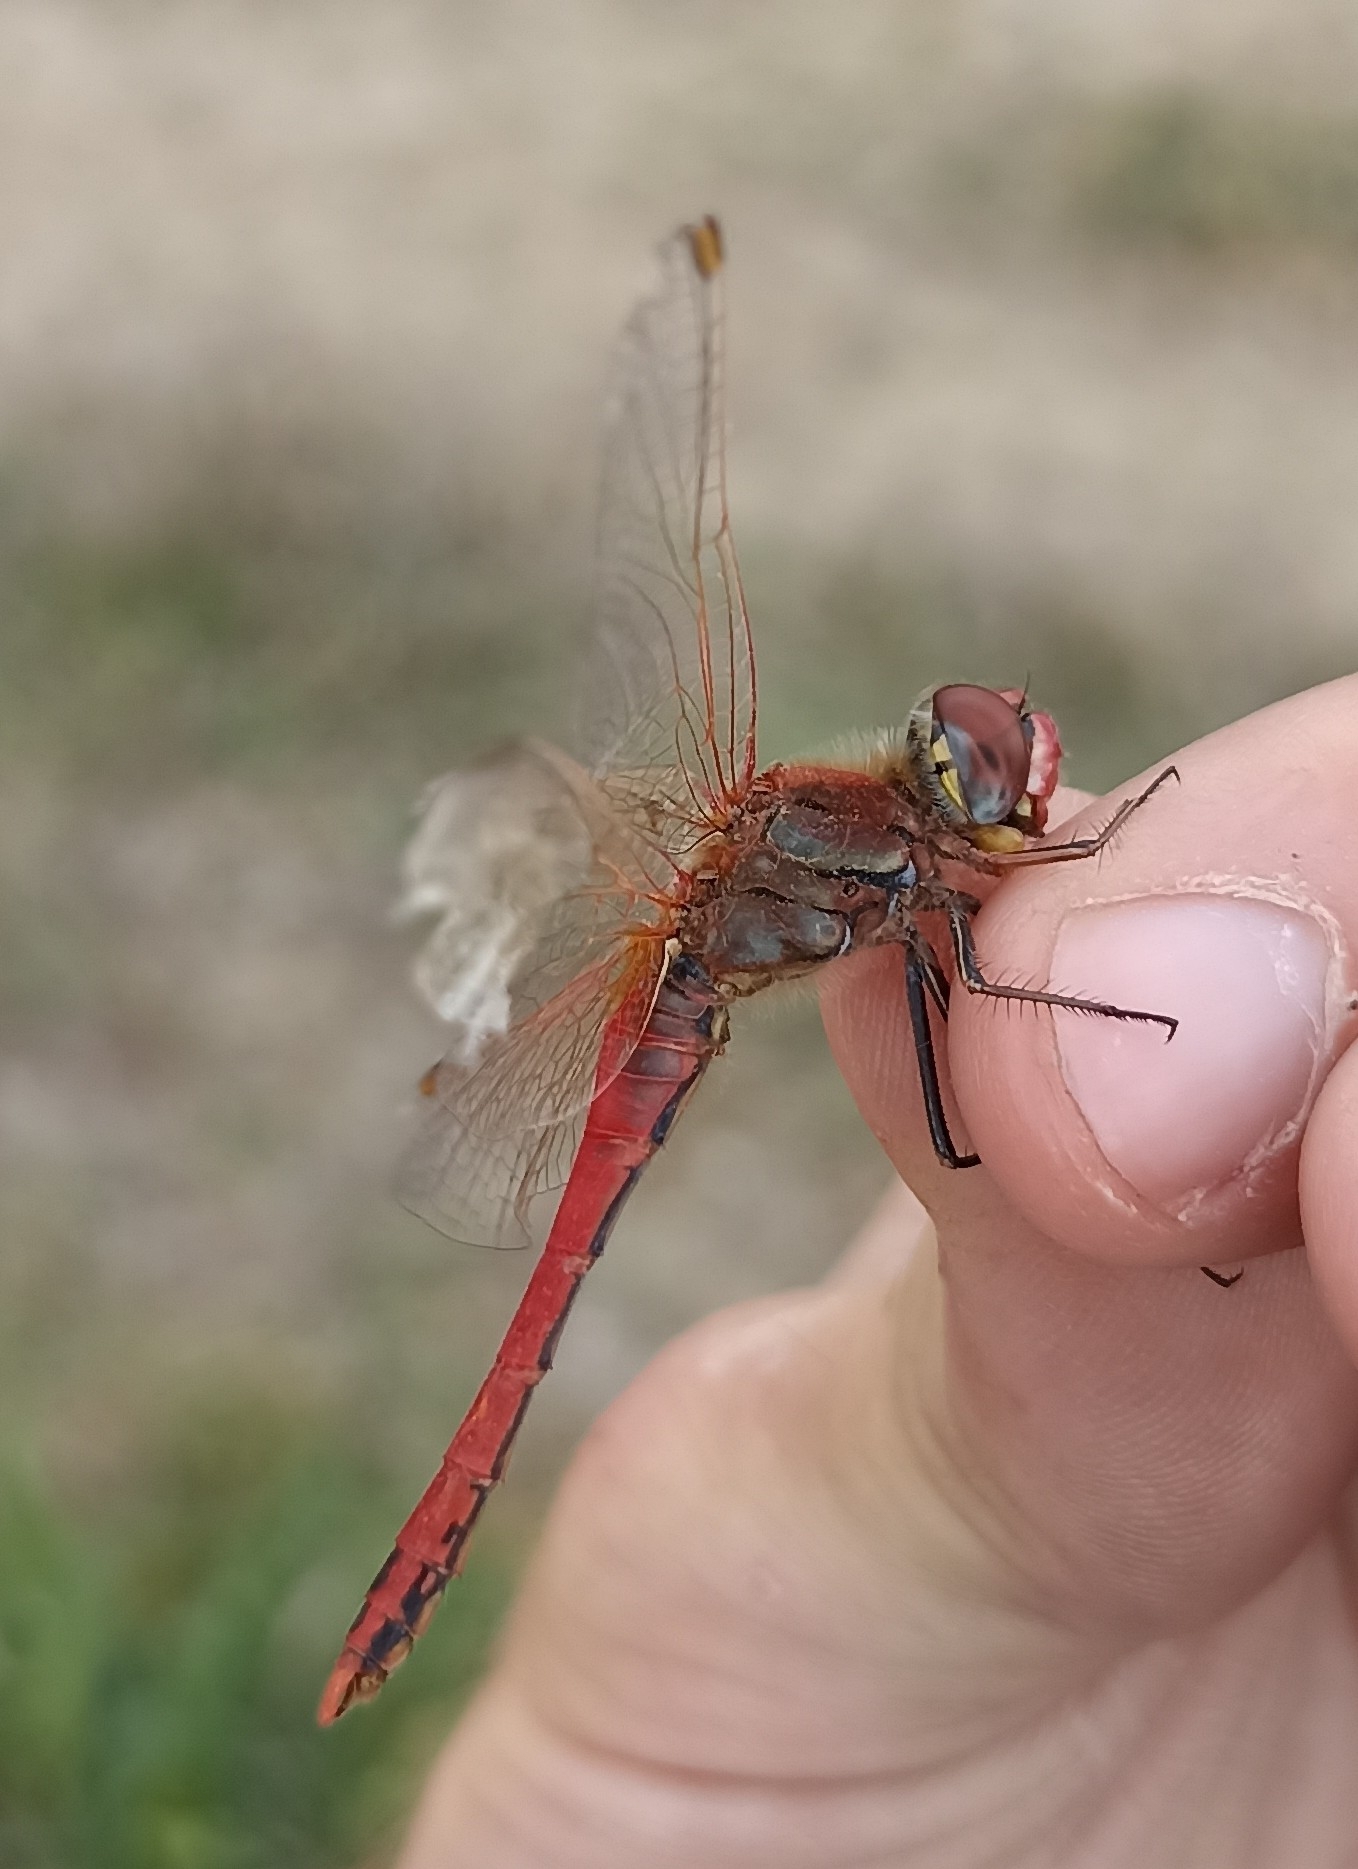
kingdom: Animalia
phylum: Arthropoda
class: Insecta
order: Odonata
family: Libellulidae
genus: Sympetrum
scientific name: Sympetrum fonscolombii
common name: Red-veined darter
